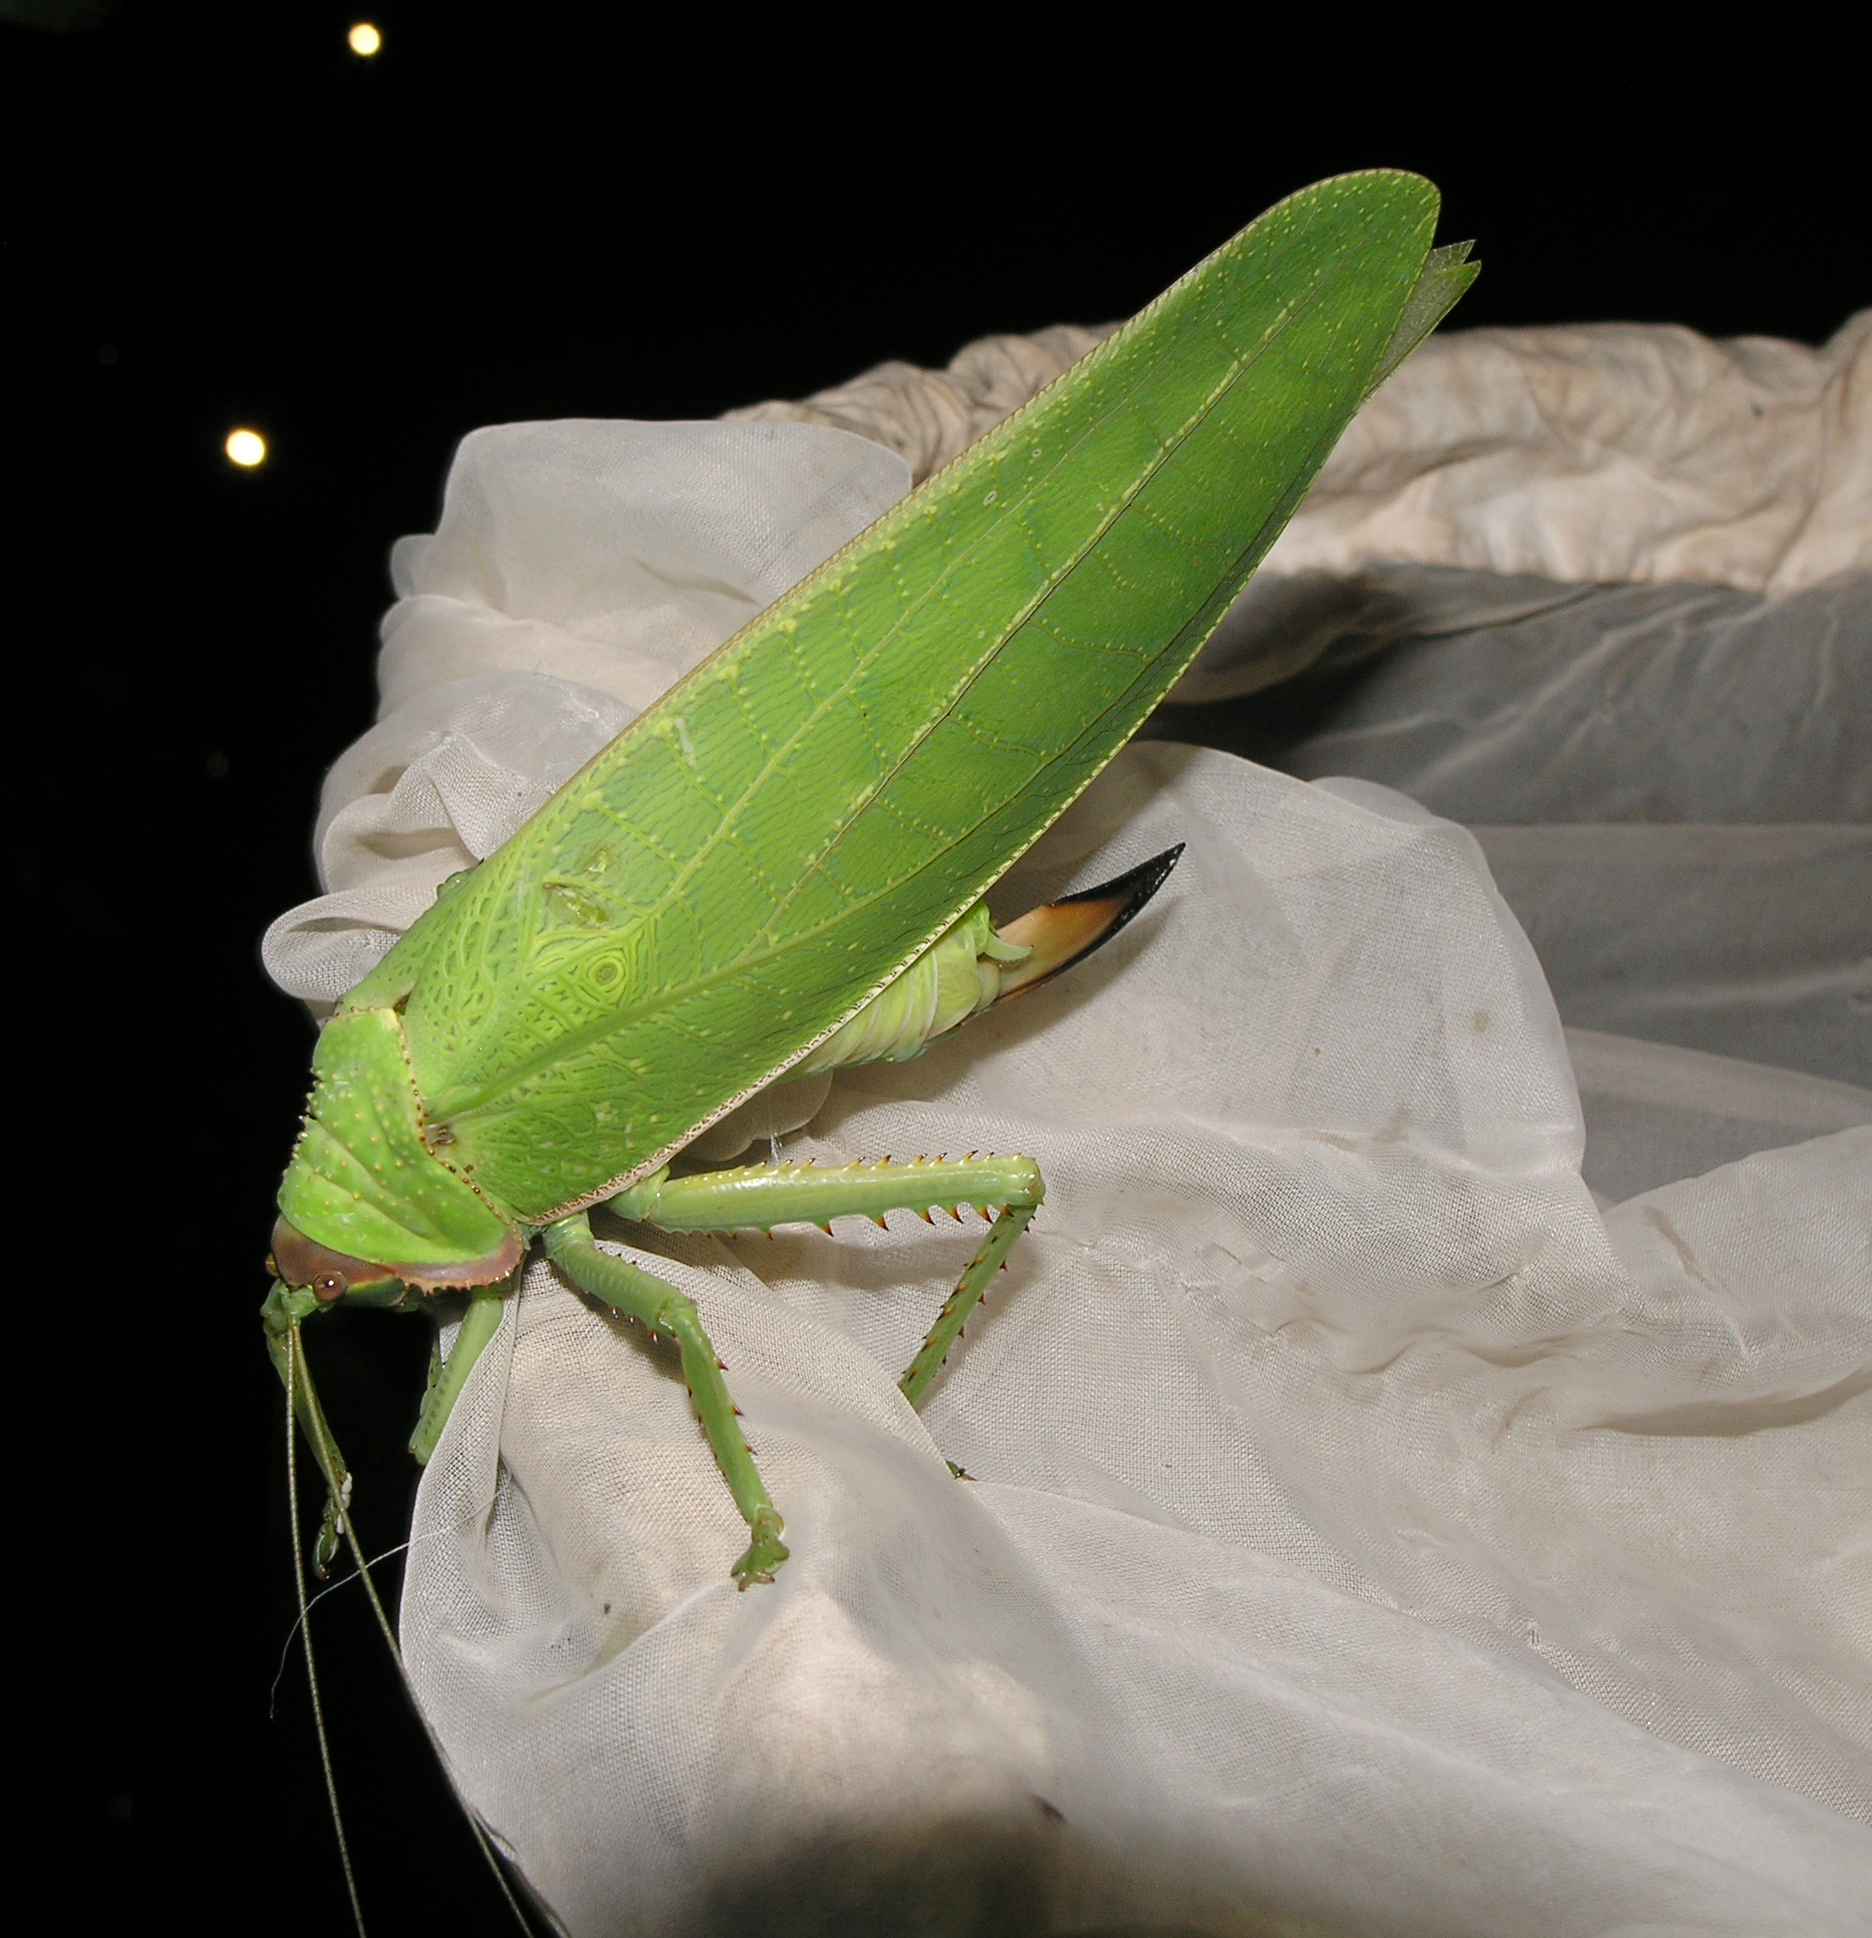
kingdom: Animalia
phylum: Arthropoda
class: Insecta
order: Orthoptera
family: Tettigoniidae
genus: Pseudophyllus
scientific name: Pseudophyllus titan
